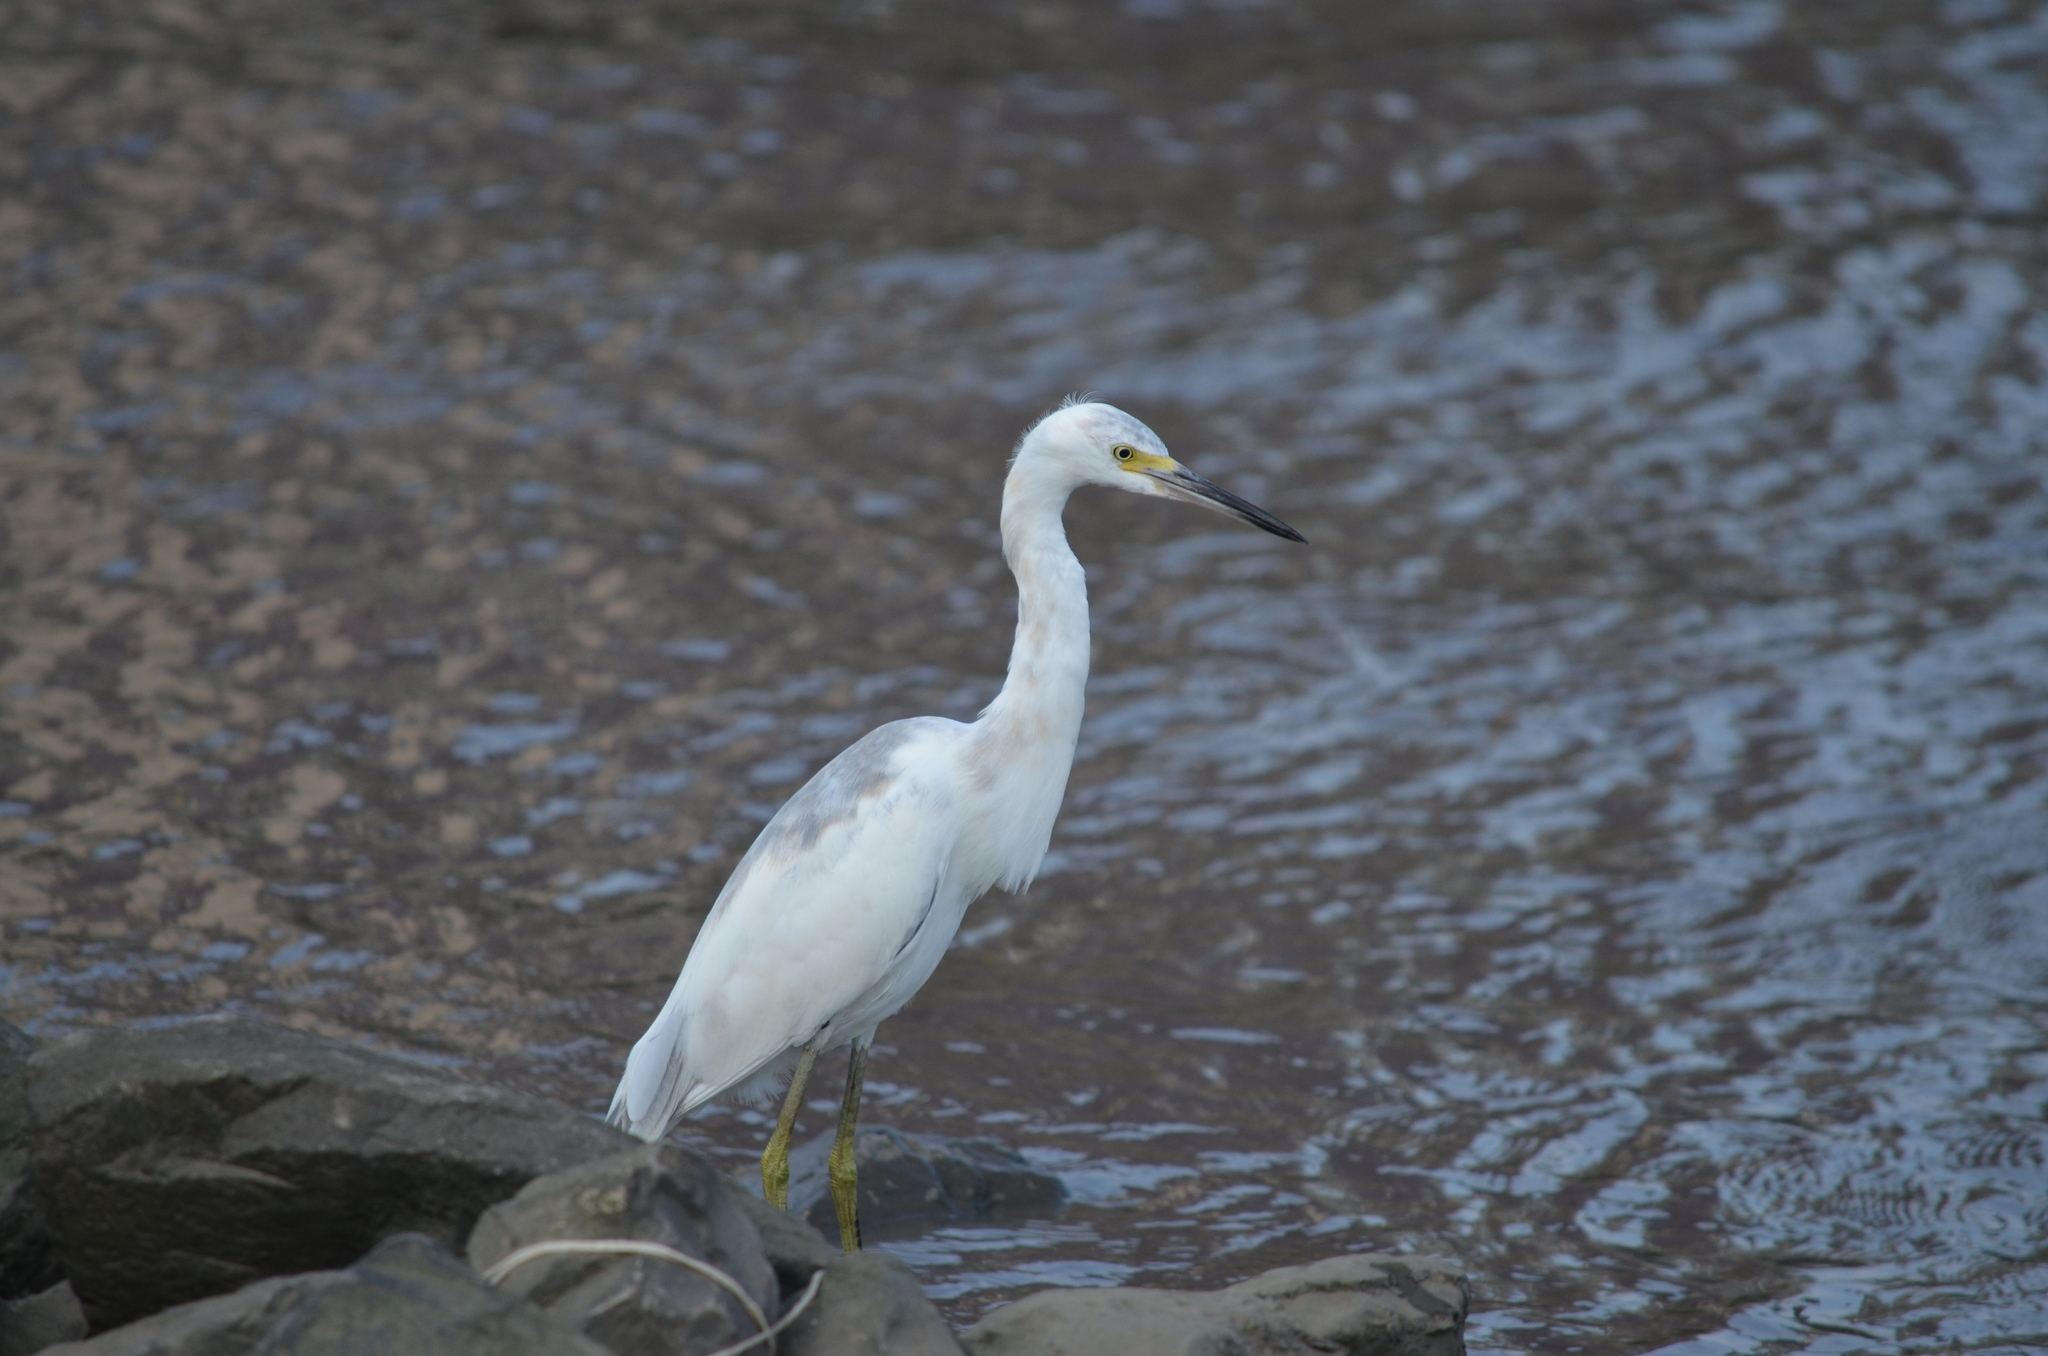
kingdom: Animalia
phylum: Chordata
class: Aves
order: Pelecaniformes
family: Ardeidae
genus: Egretta
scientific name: Egretta caerulea
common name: Little blue heron
